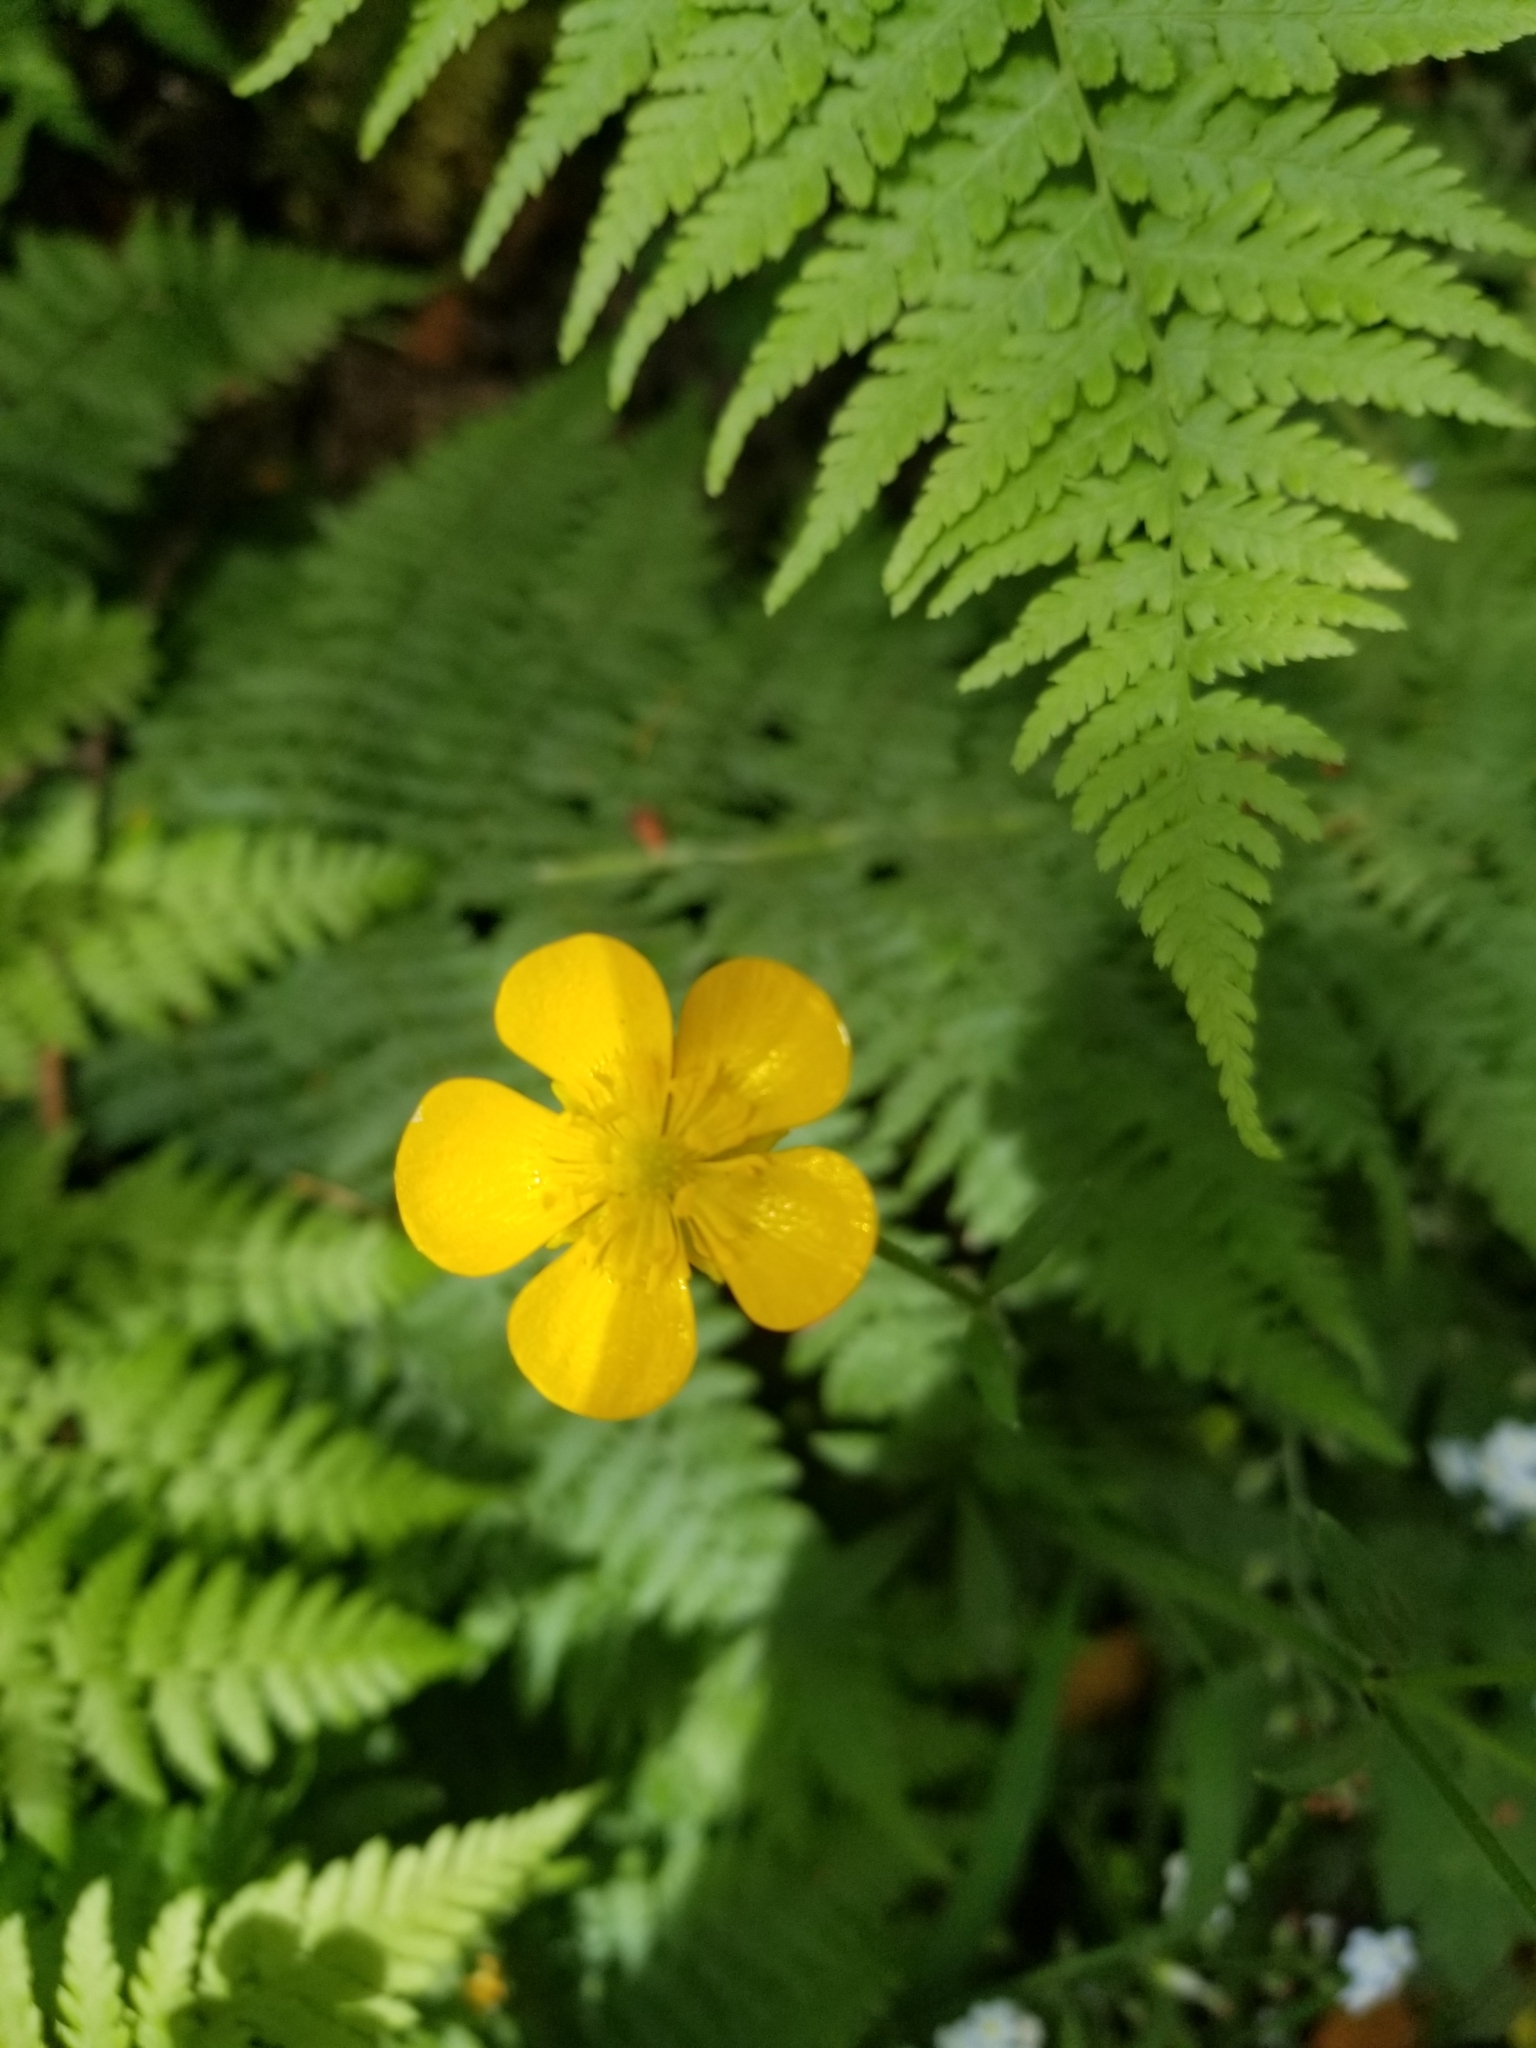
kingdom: Plantae
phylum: Tracheophyta
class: Magnoliopsida
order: Ranunculales
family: Ranunculaceae
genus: Ranunculus
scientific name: Ranunculus repens
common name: Creeping buttercup
